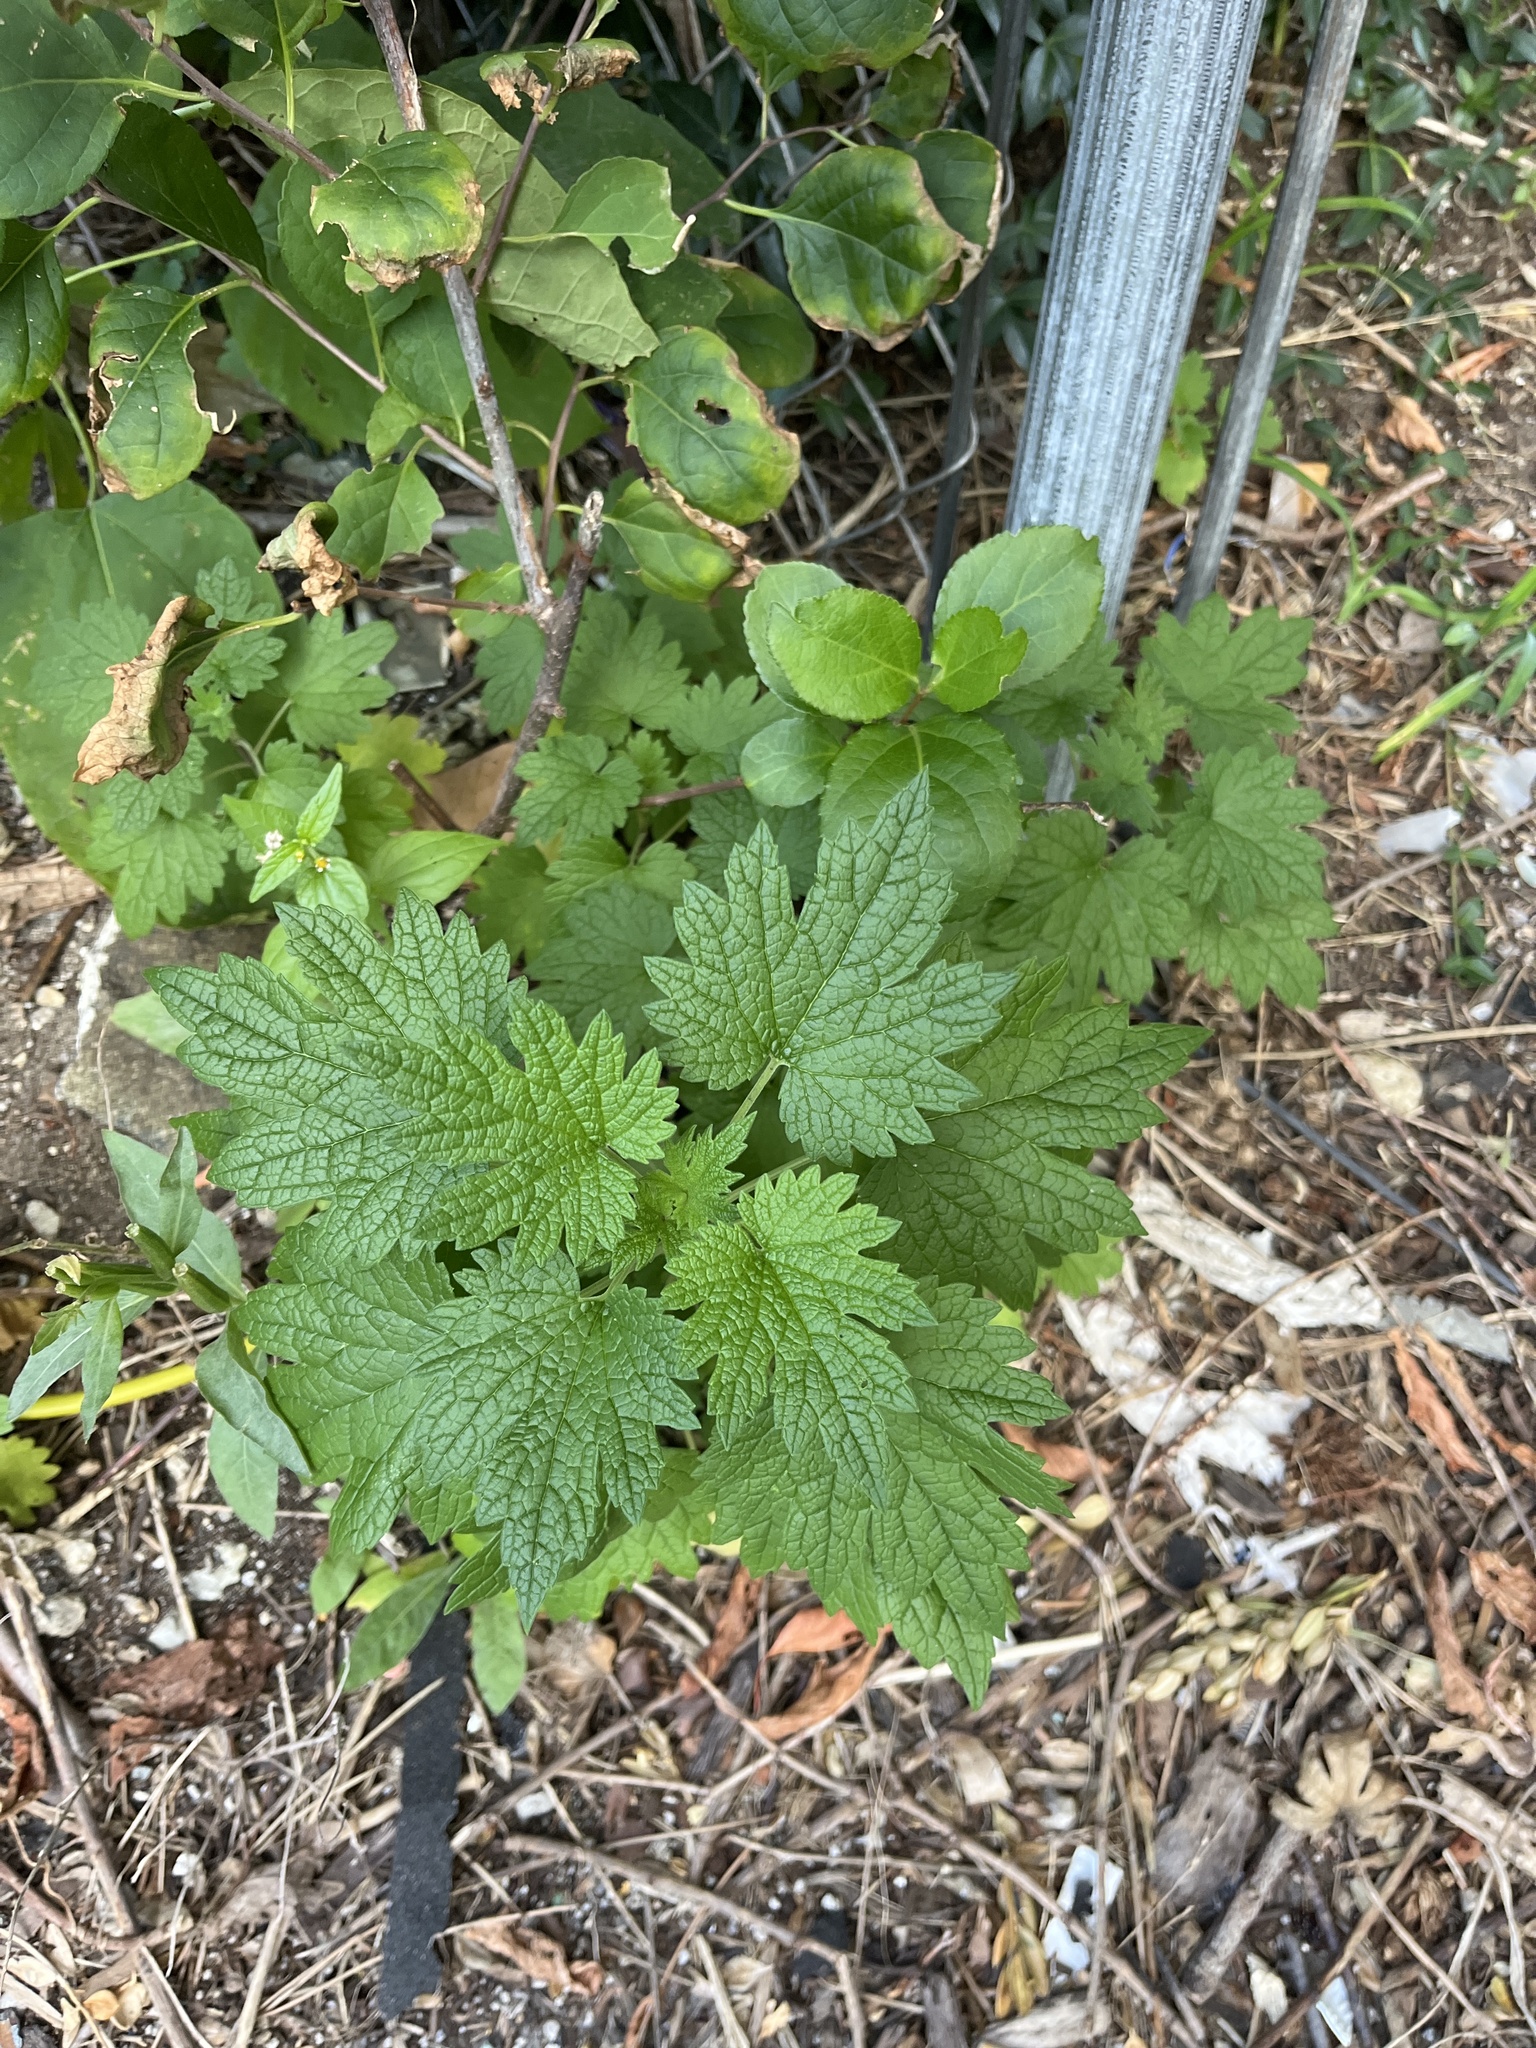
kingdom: Plantae
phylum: Tracheophyta
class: Magnoliopsida
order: Lamiales
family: Lamiaceae
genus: Leonurus
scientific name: Leonurus cardiaca
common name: Motherwort
